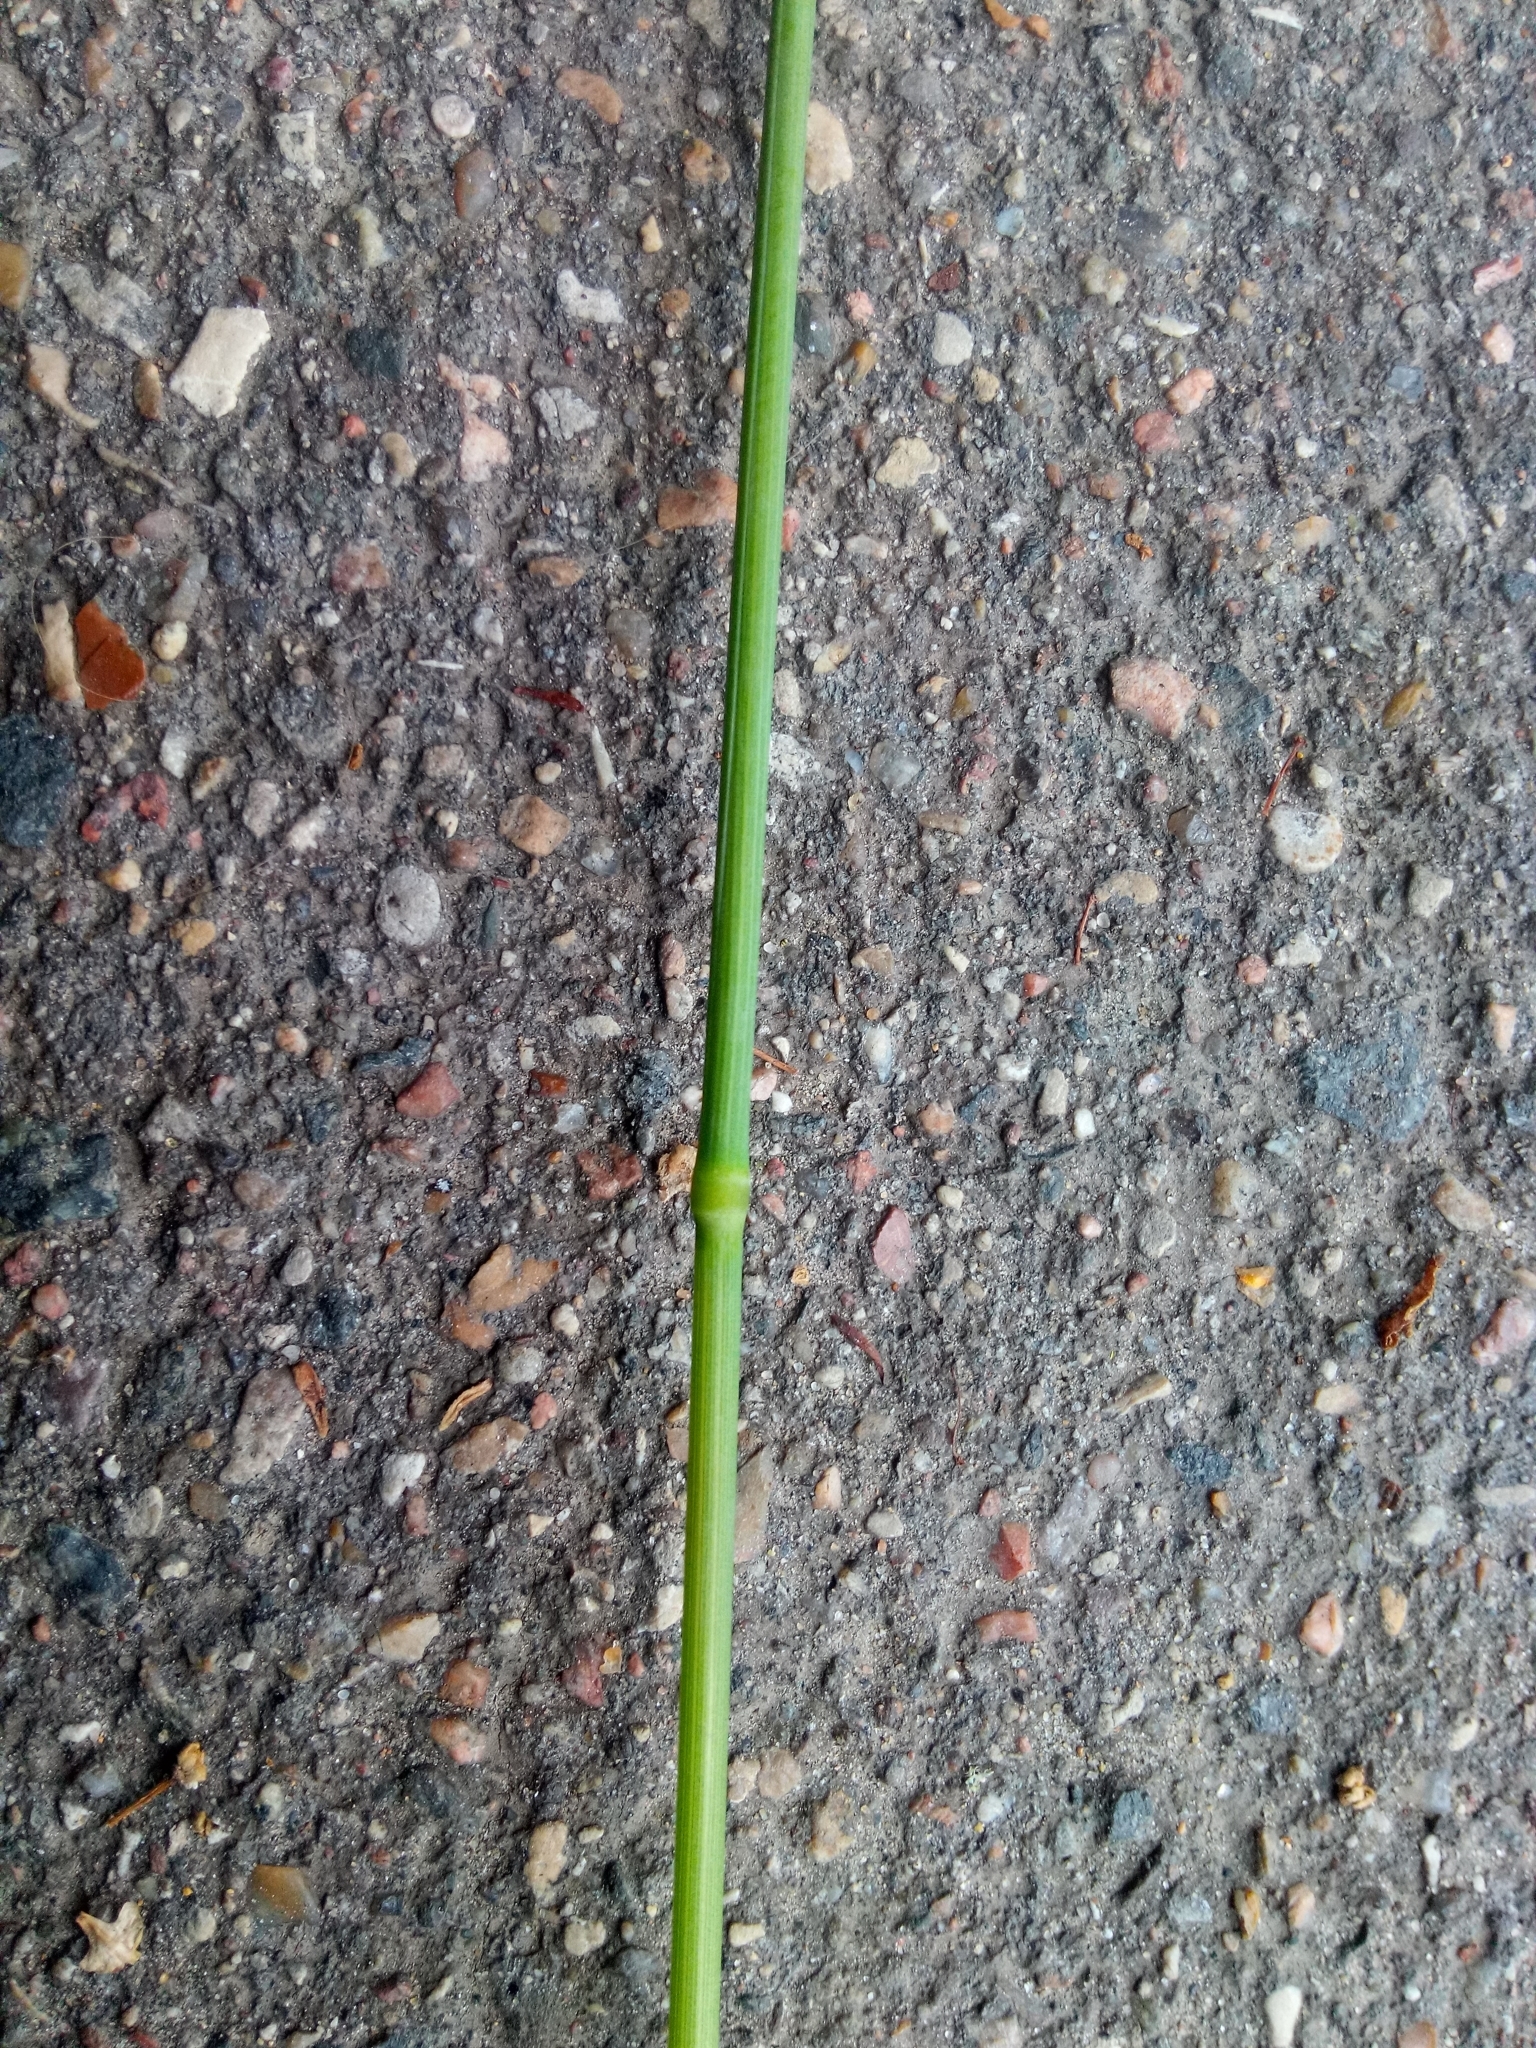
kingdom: Plantae
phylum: Tracheophyta
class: Liliopsida
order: Poales
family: Poaceae
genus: Milium
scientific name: Milium effusum
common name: Wood millet
